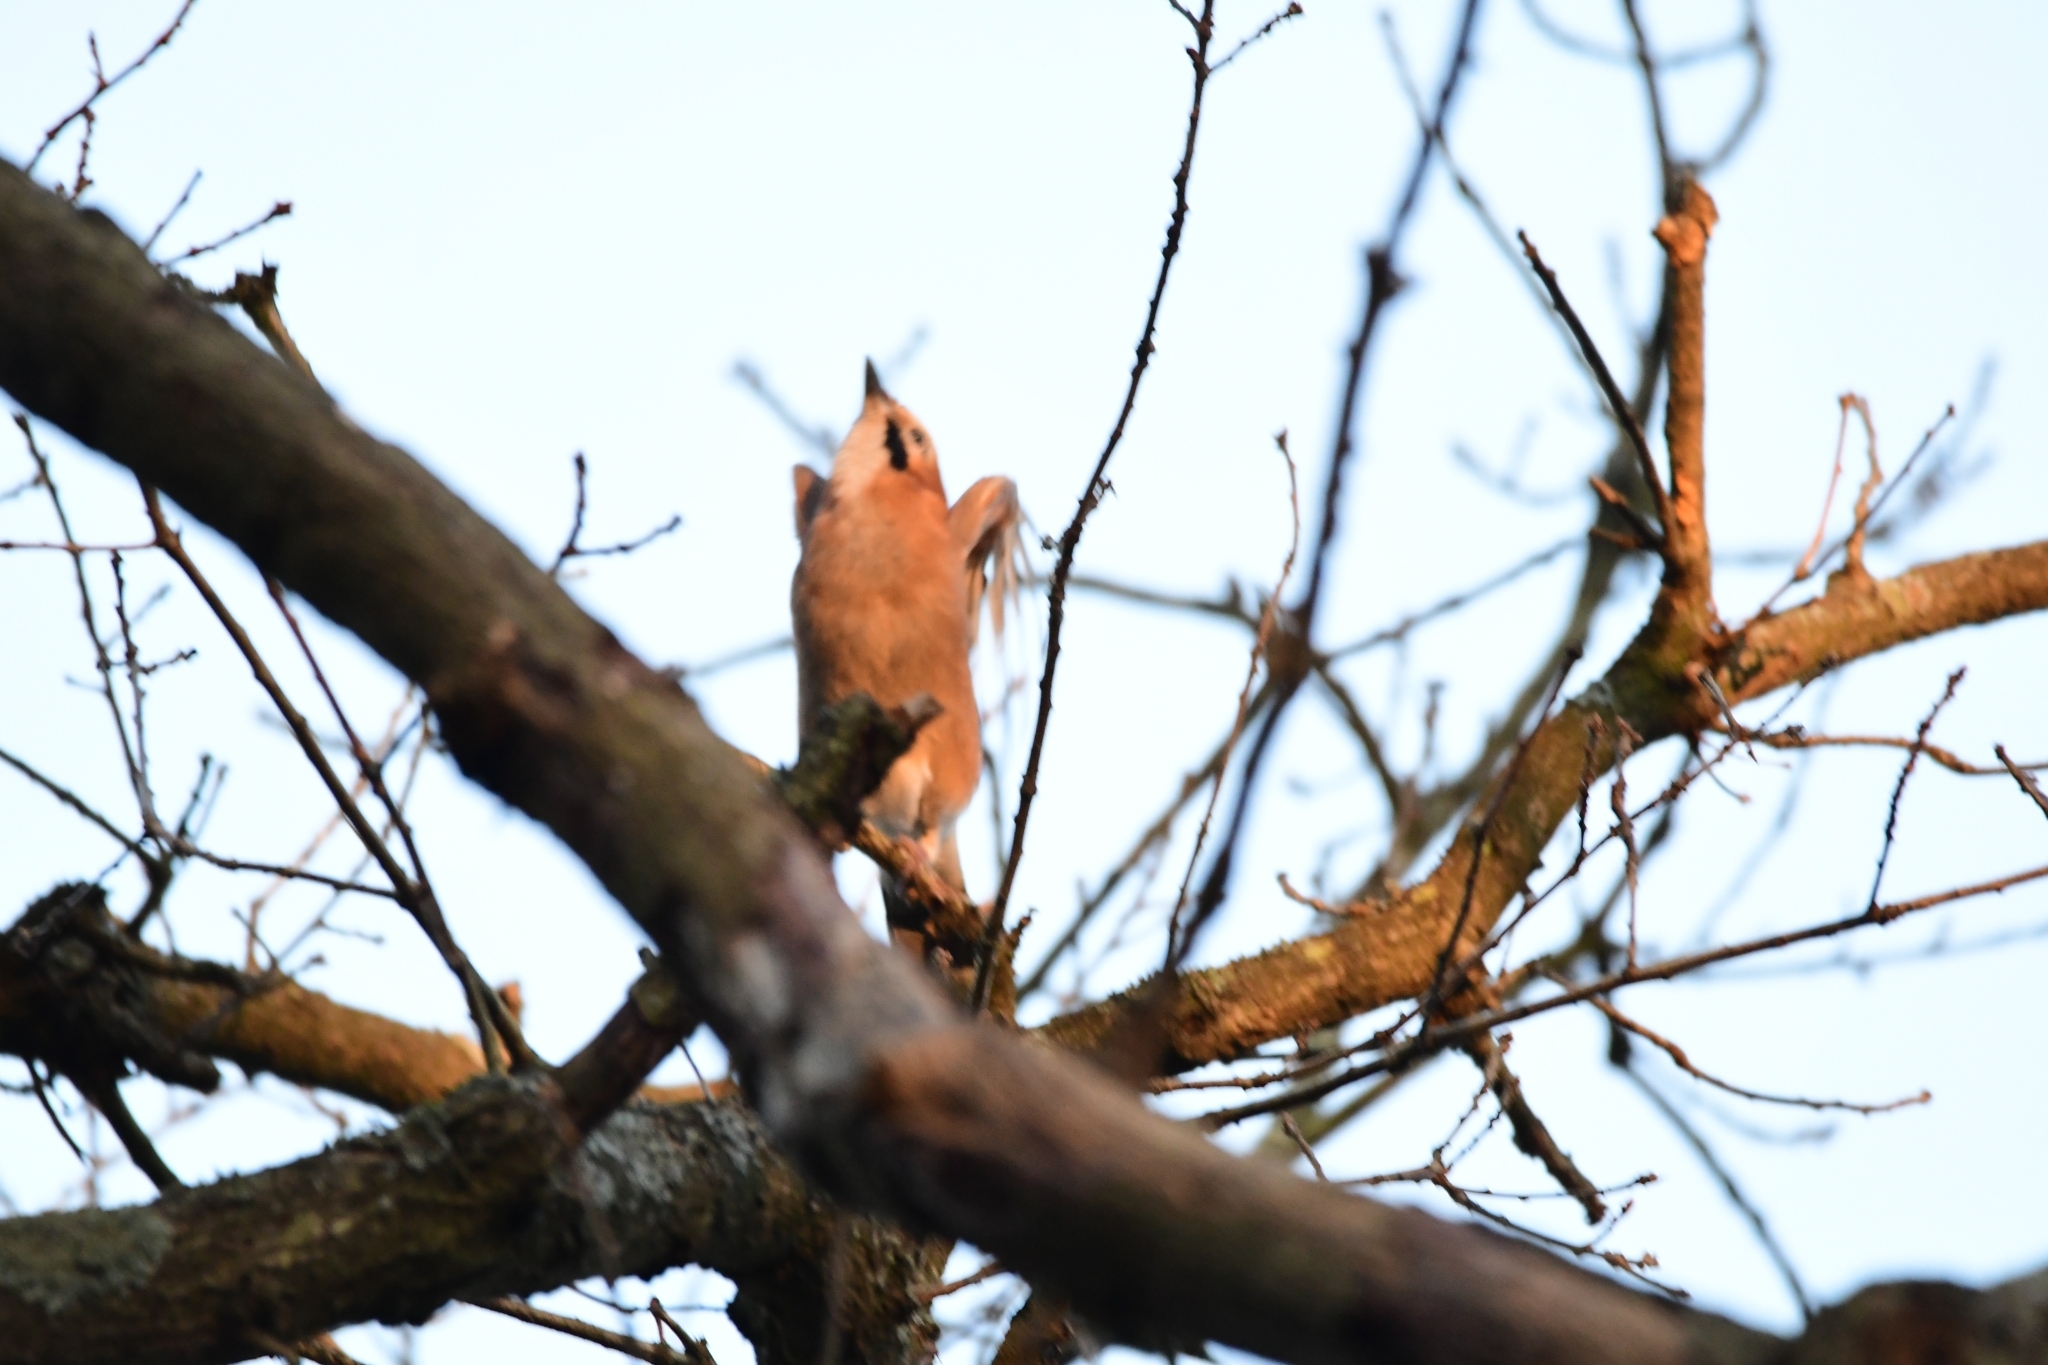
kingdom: Animalia
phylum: Chordata
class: Aves
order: Passeriformes
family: Corvidae
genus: Garrulus
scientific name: Garrulus glandarius
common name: Eurasian jay
